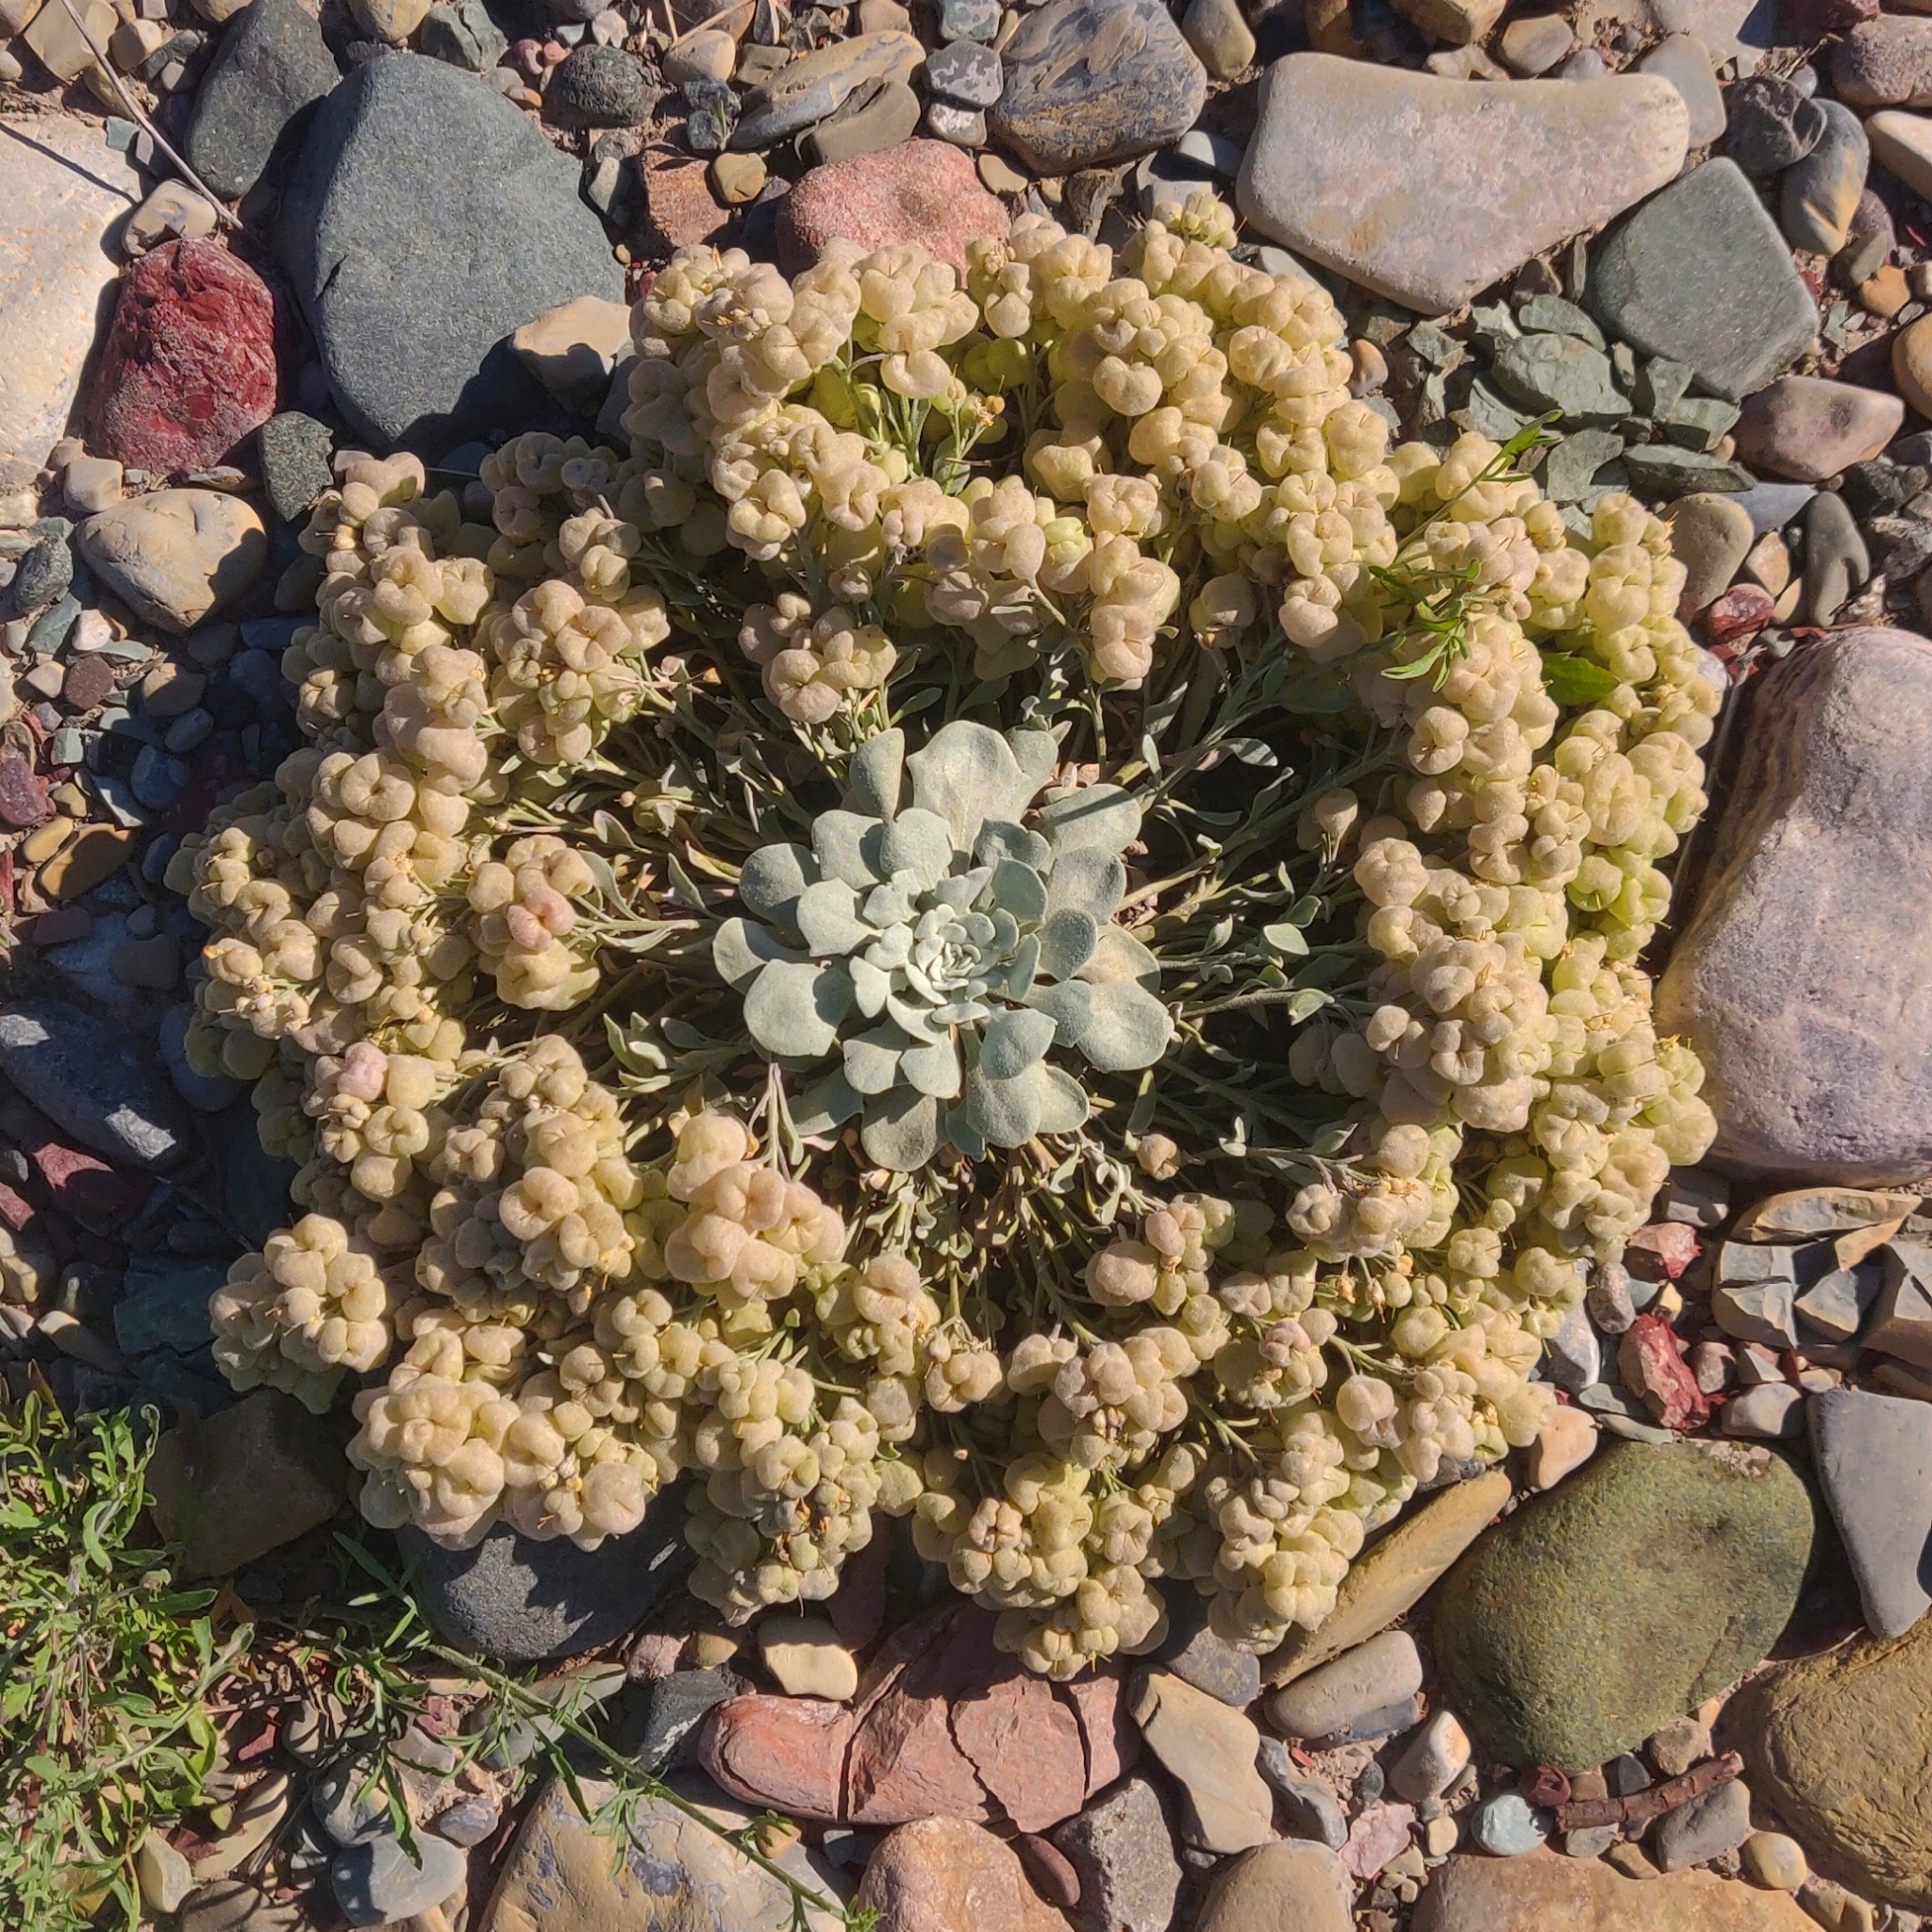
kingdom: Plantae
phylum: Tracheophyta
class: Magnoliopsida
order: Brassicales
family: Brassicaceae
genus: Physaria
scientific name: Physaria didymocarpa
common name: Common twinpod
